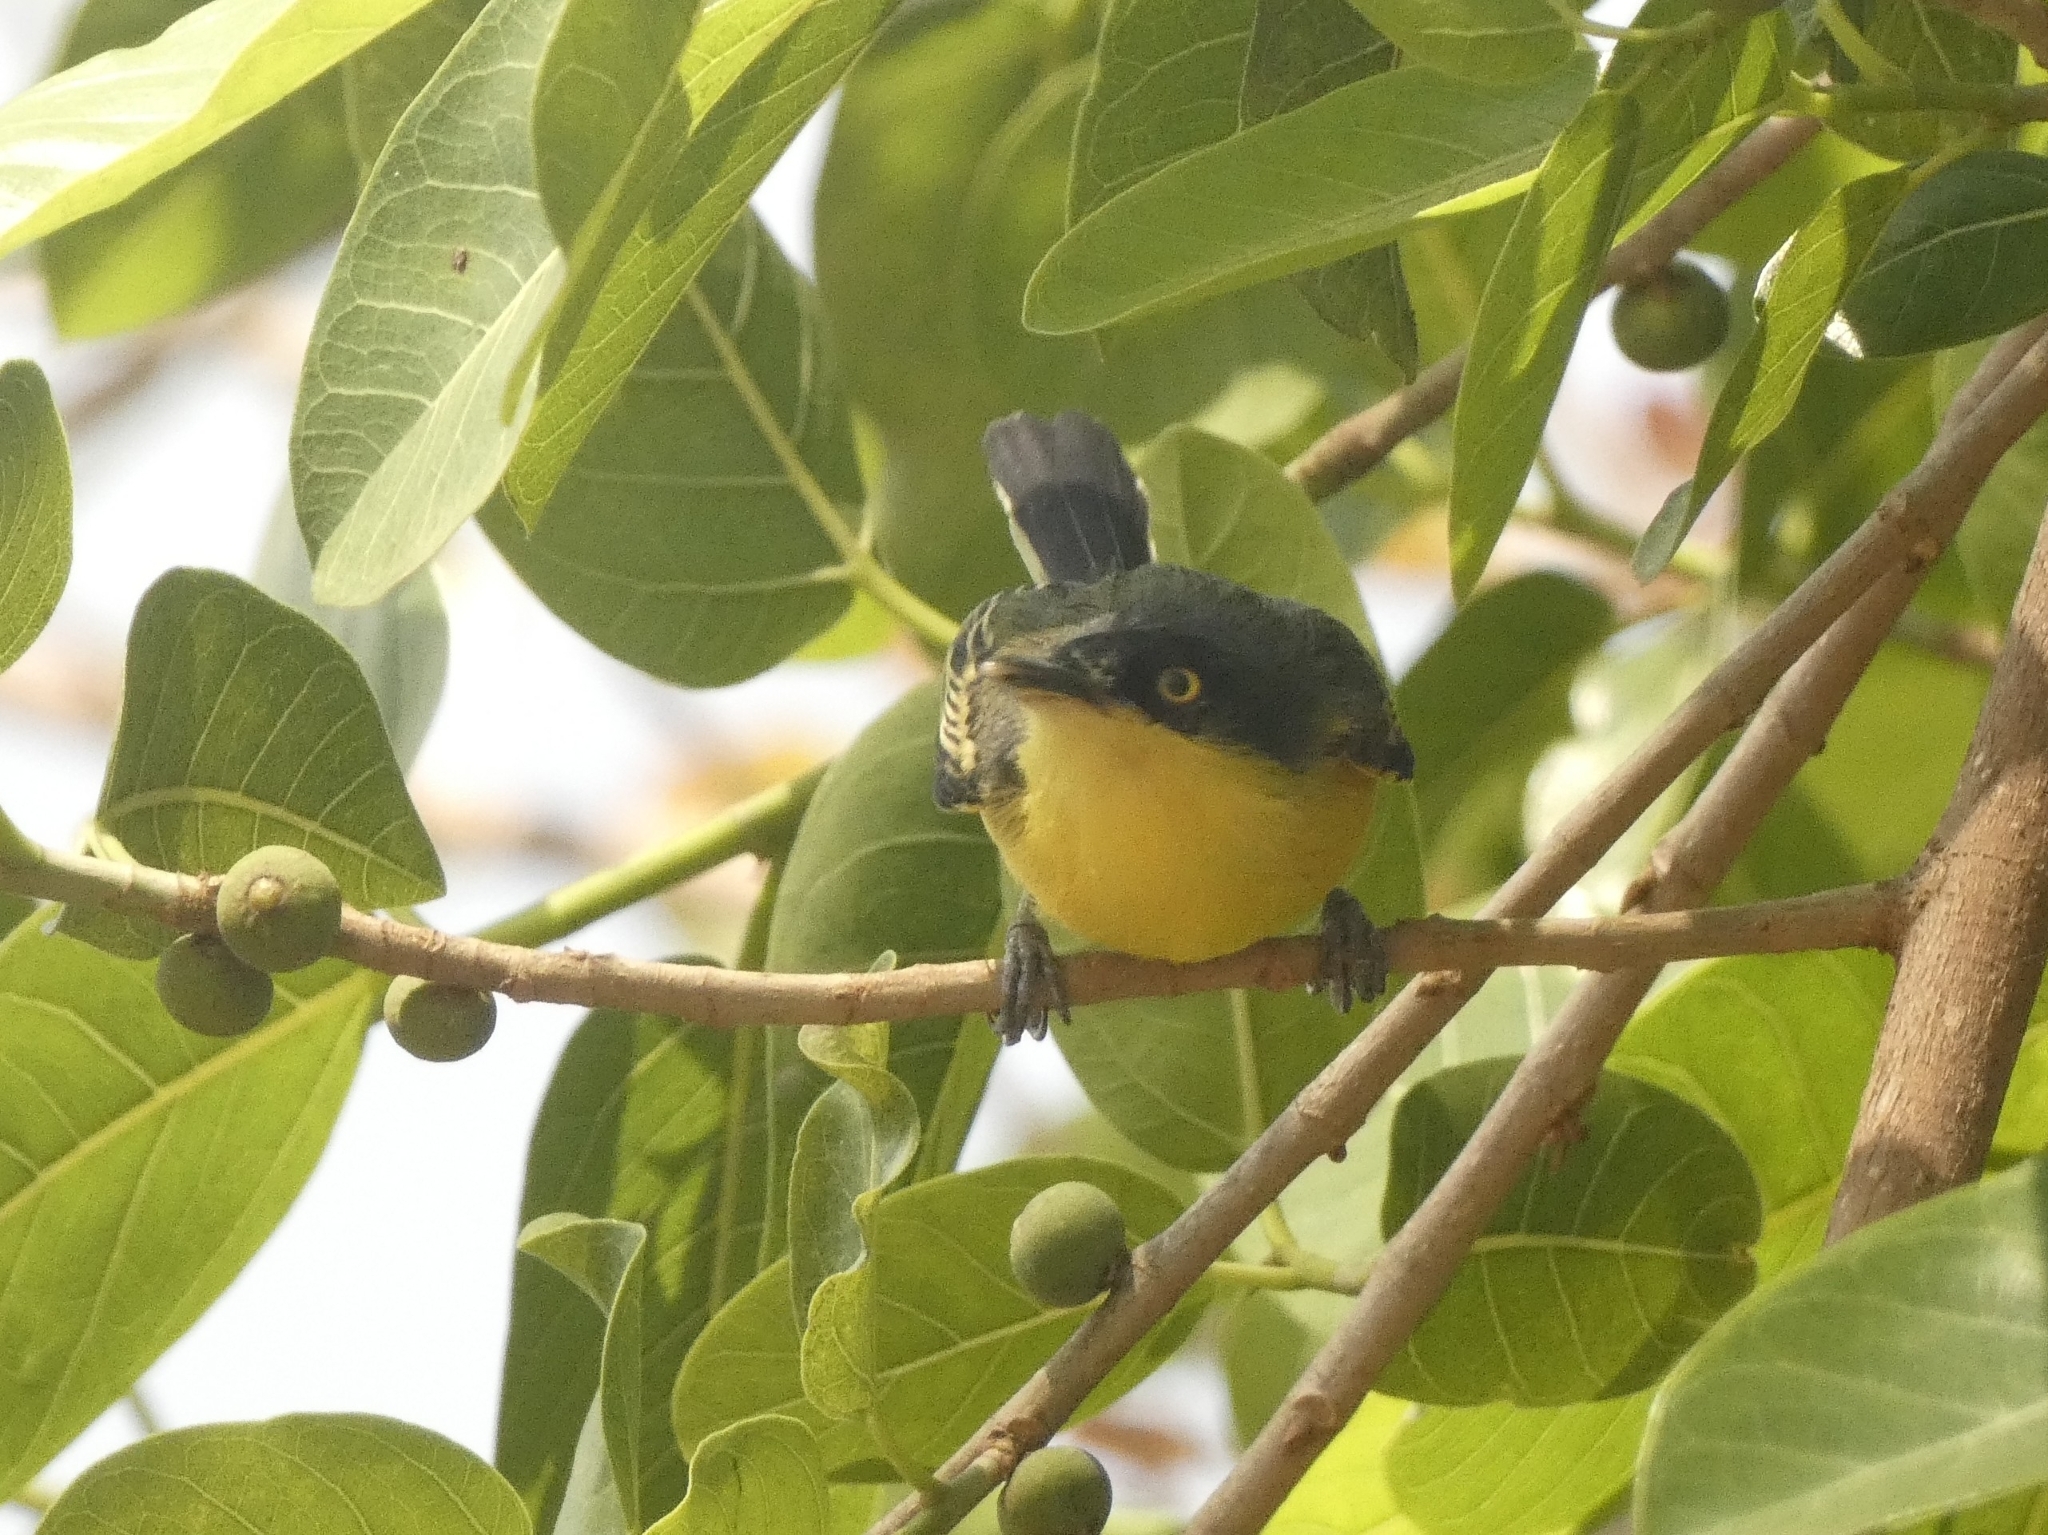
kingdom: Animalia
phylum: Chordata
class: Aves
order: Passeriformes
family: Tyrannidae
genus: Todirostrum
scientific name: Todirostrum cinereum
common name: Common tody-flycatcher
